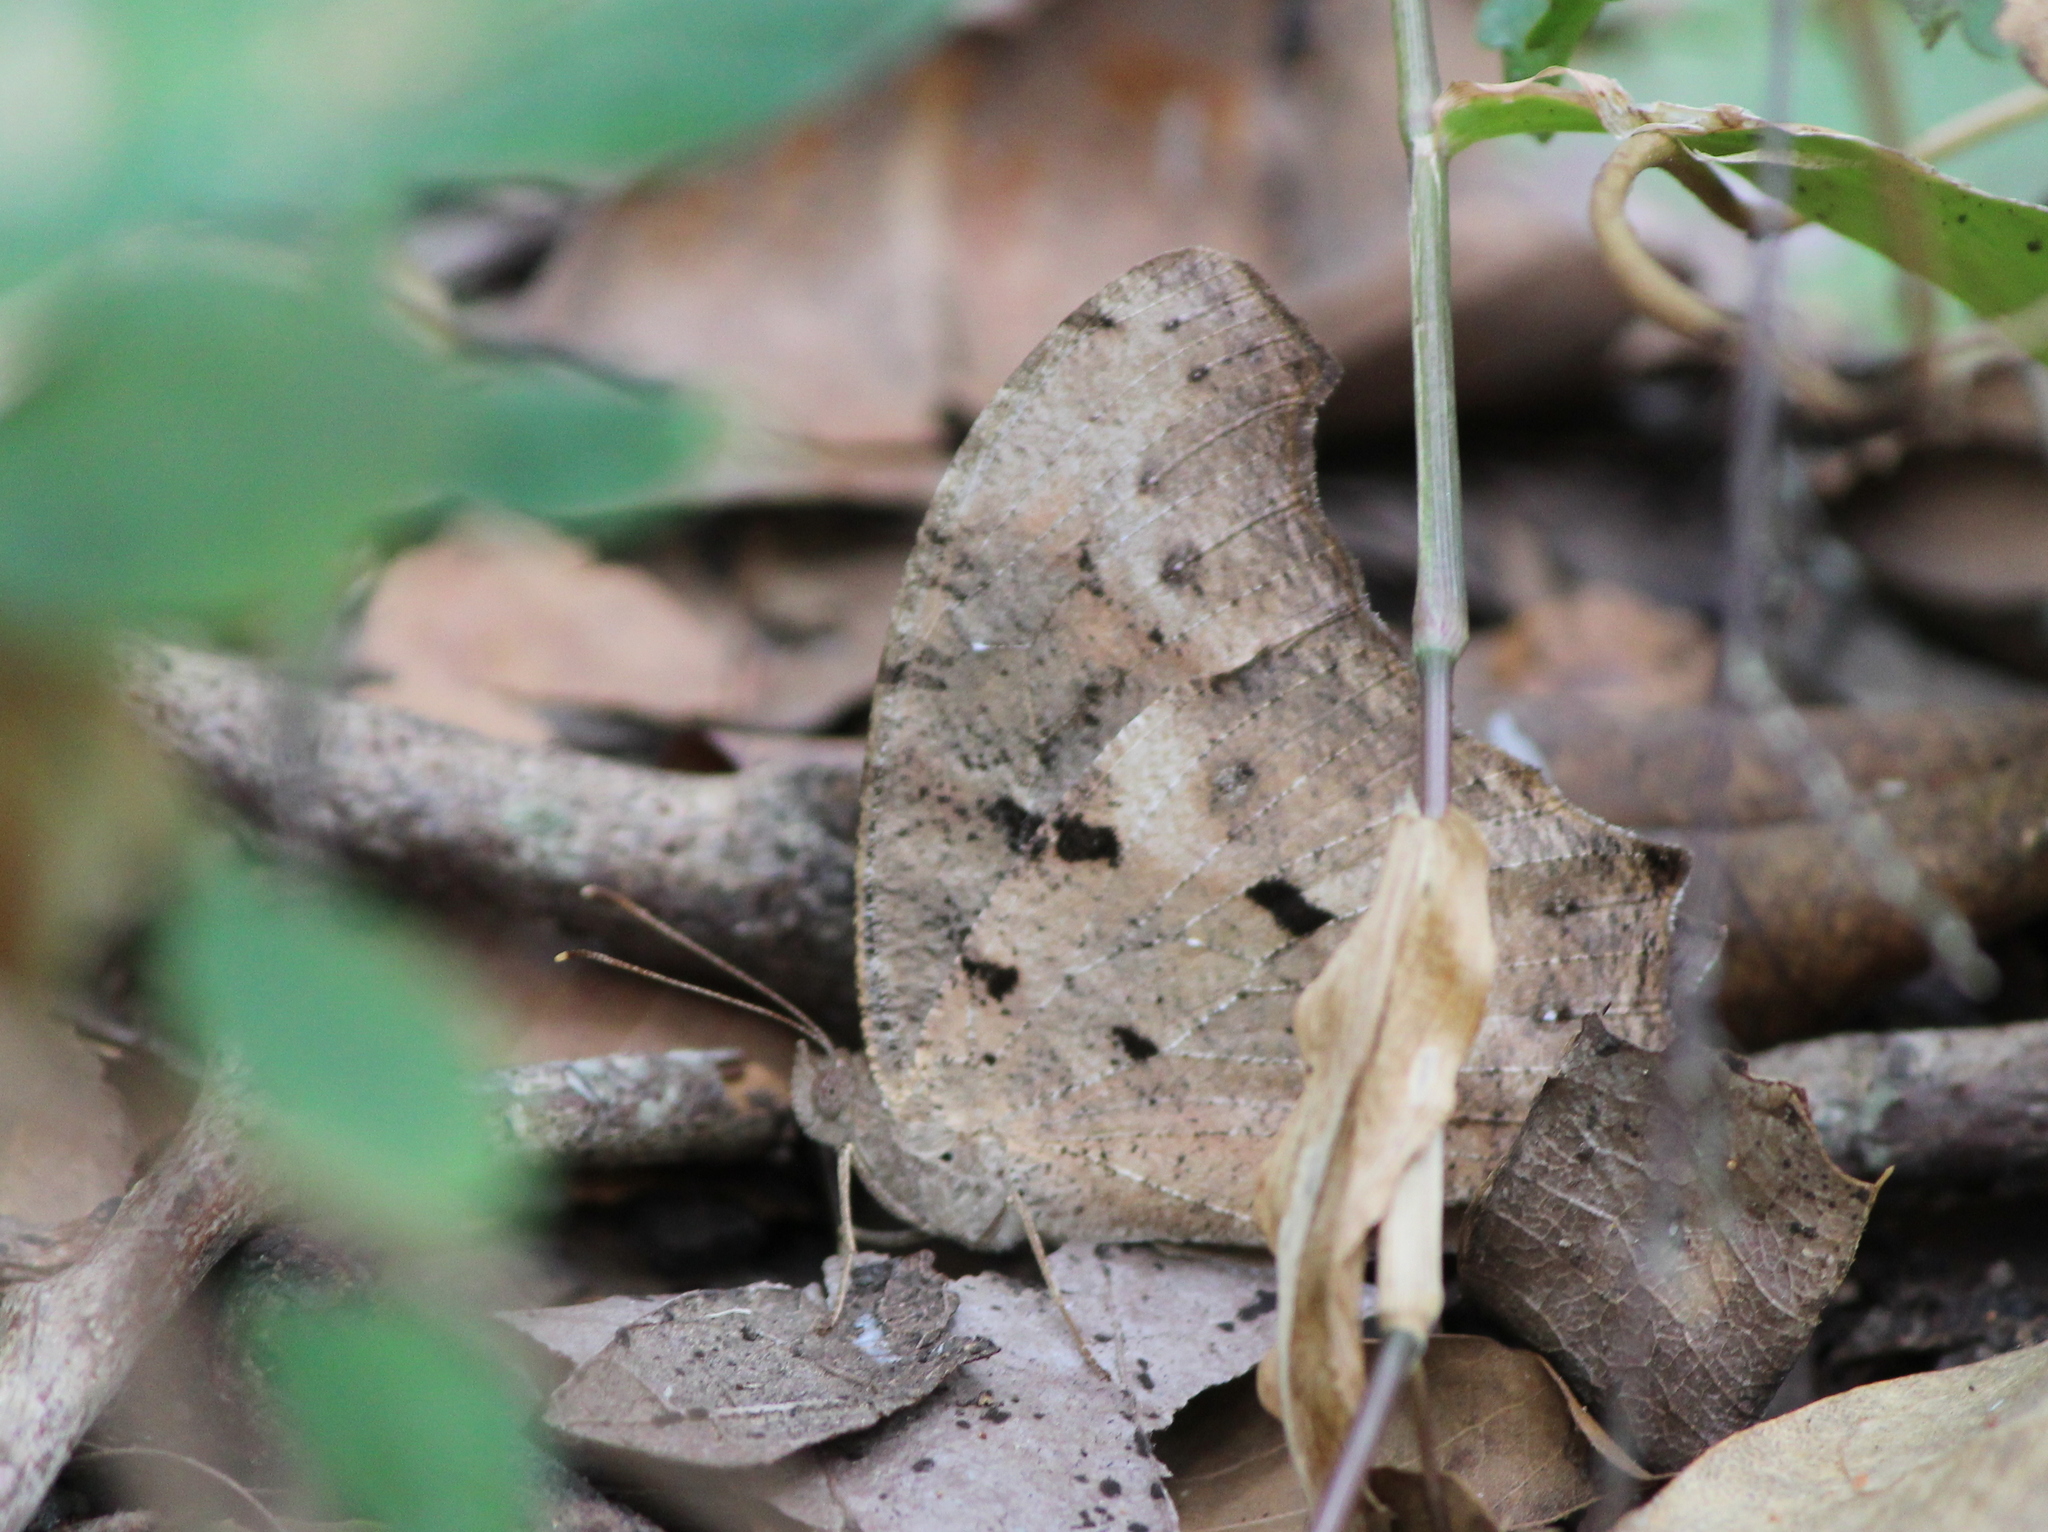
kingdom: Animalia
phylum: Arthropoda
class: Insecta
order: Lepidoptera
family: Nymphalidae
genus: Melanitis
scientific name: Melanitis leda
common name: Twilight brown
